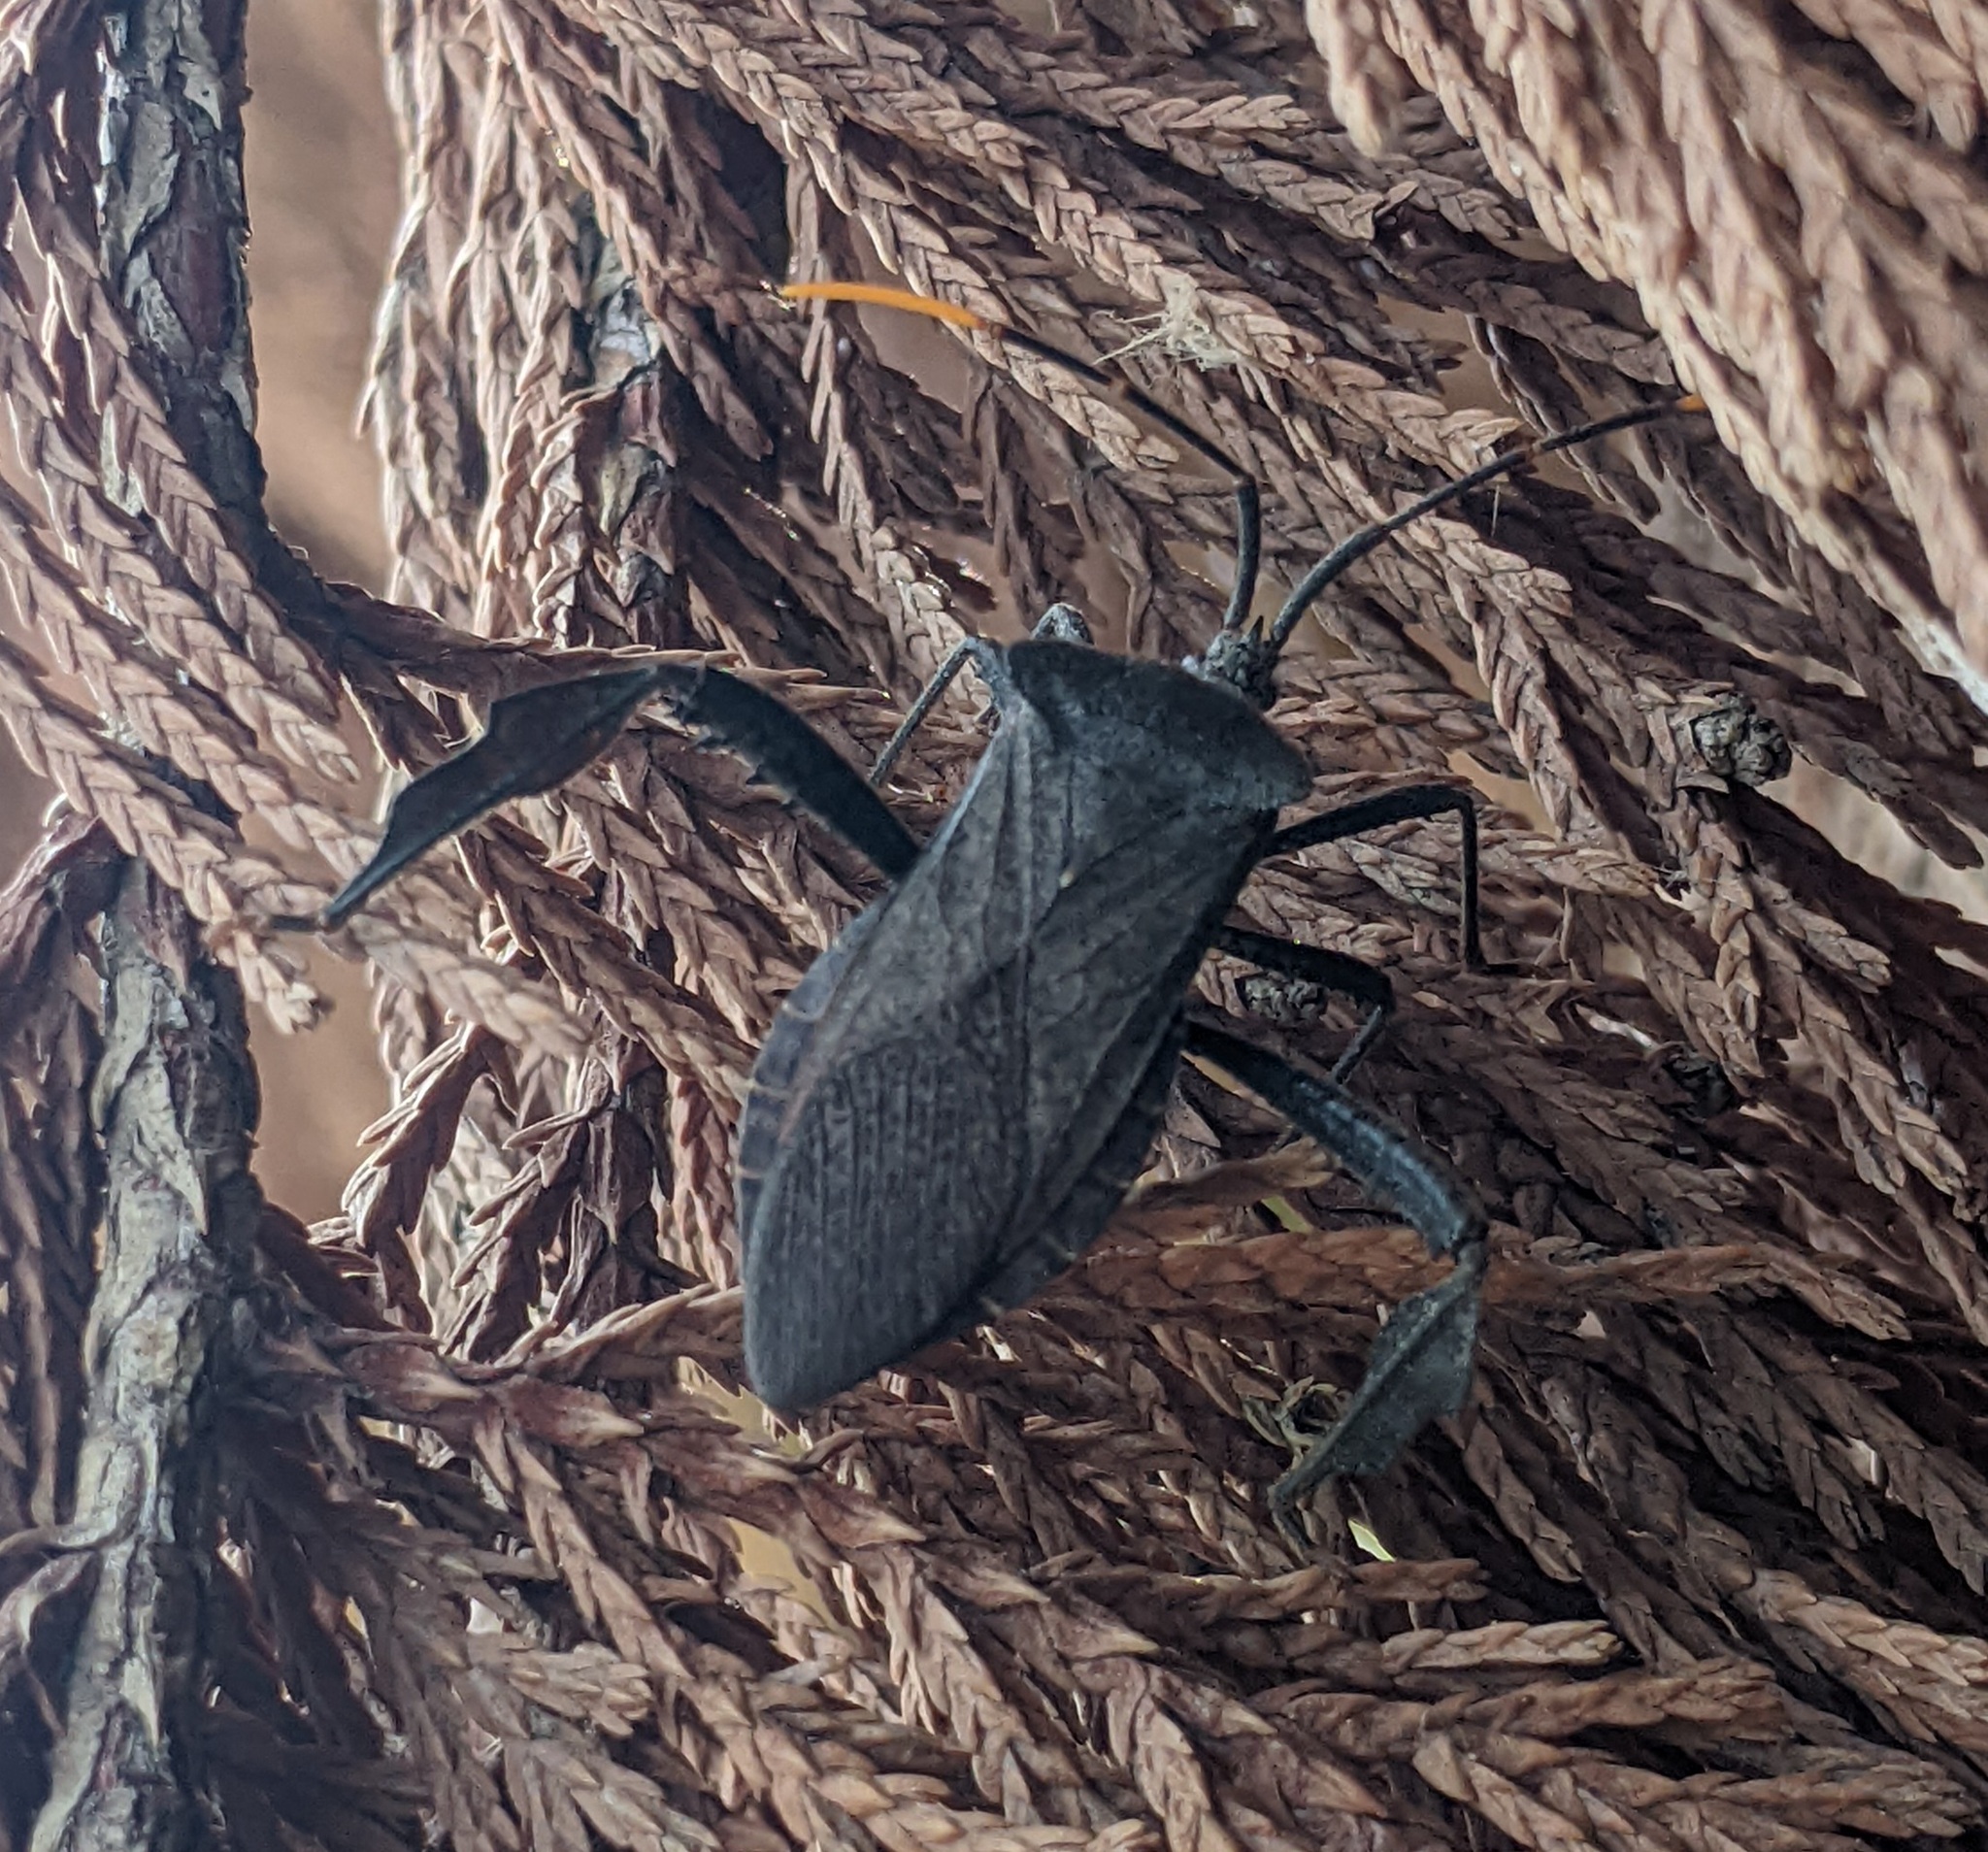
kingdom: Animalia
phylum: Arthropoda
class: Insecta
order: Hemiptera
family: Coreidae
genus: Acanthocephala
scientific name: Acanthocephala terminalis
